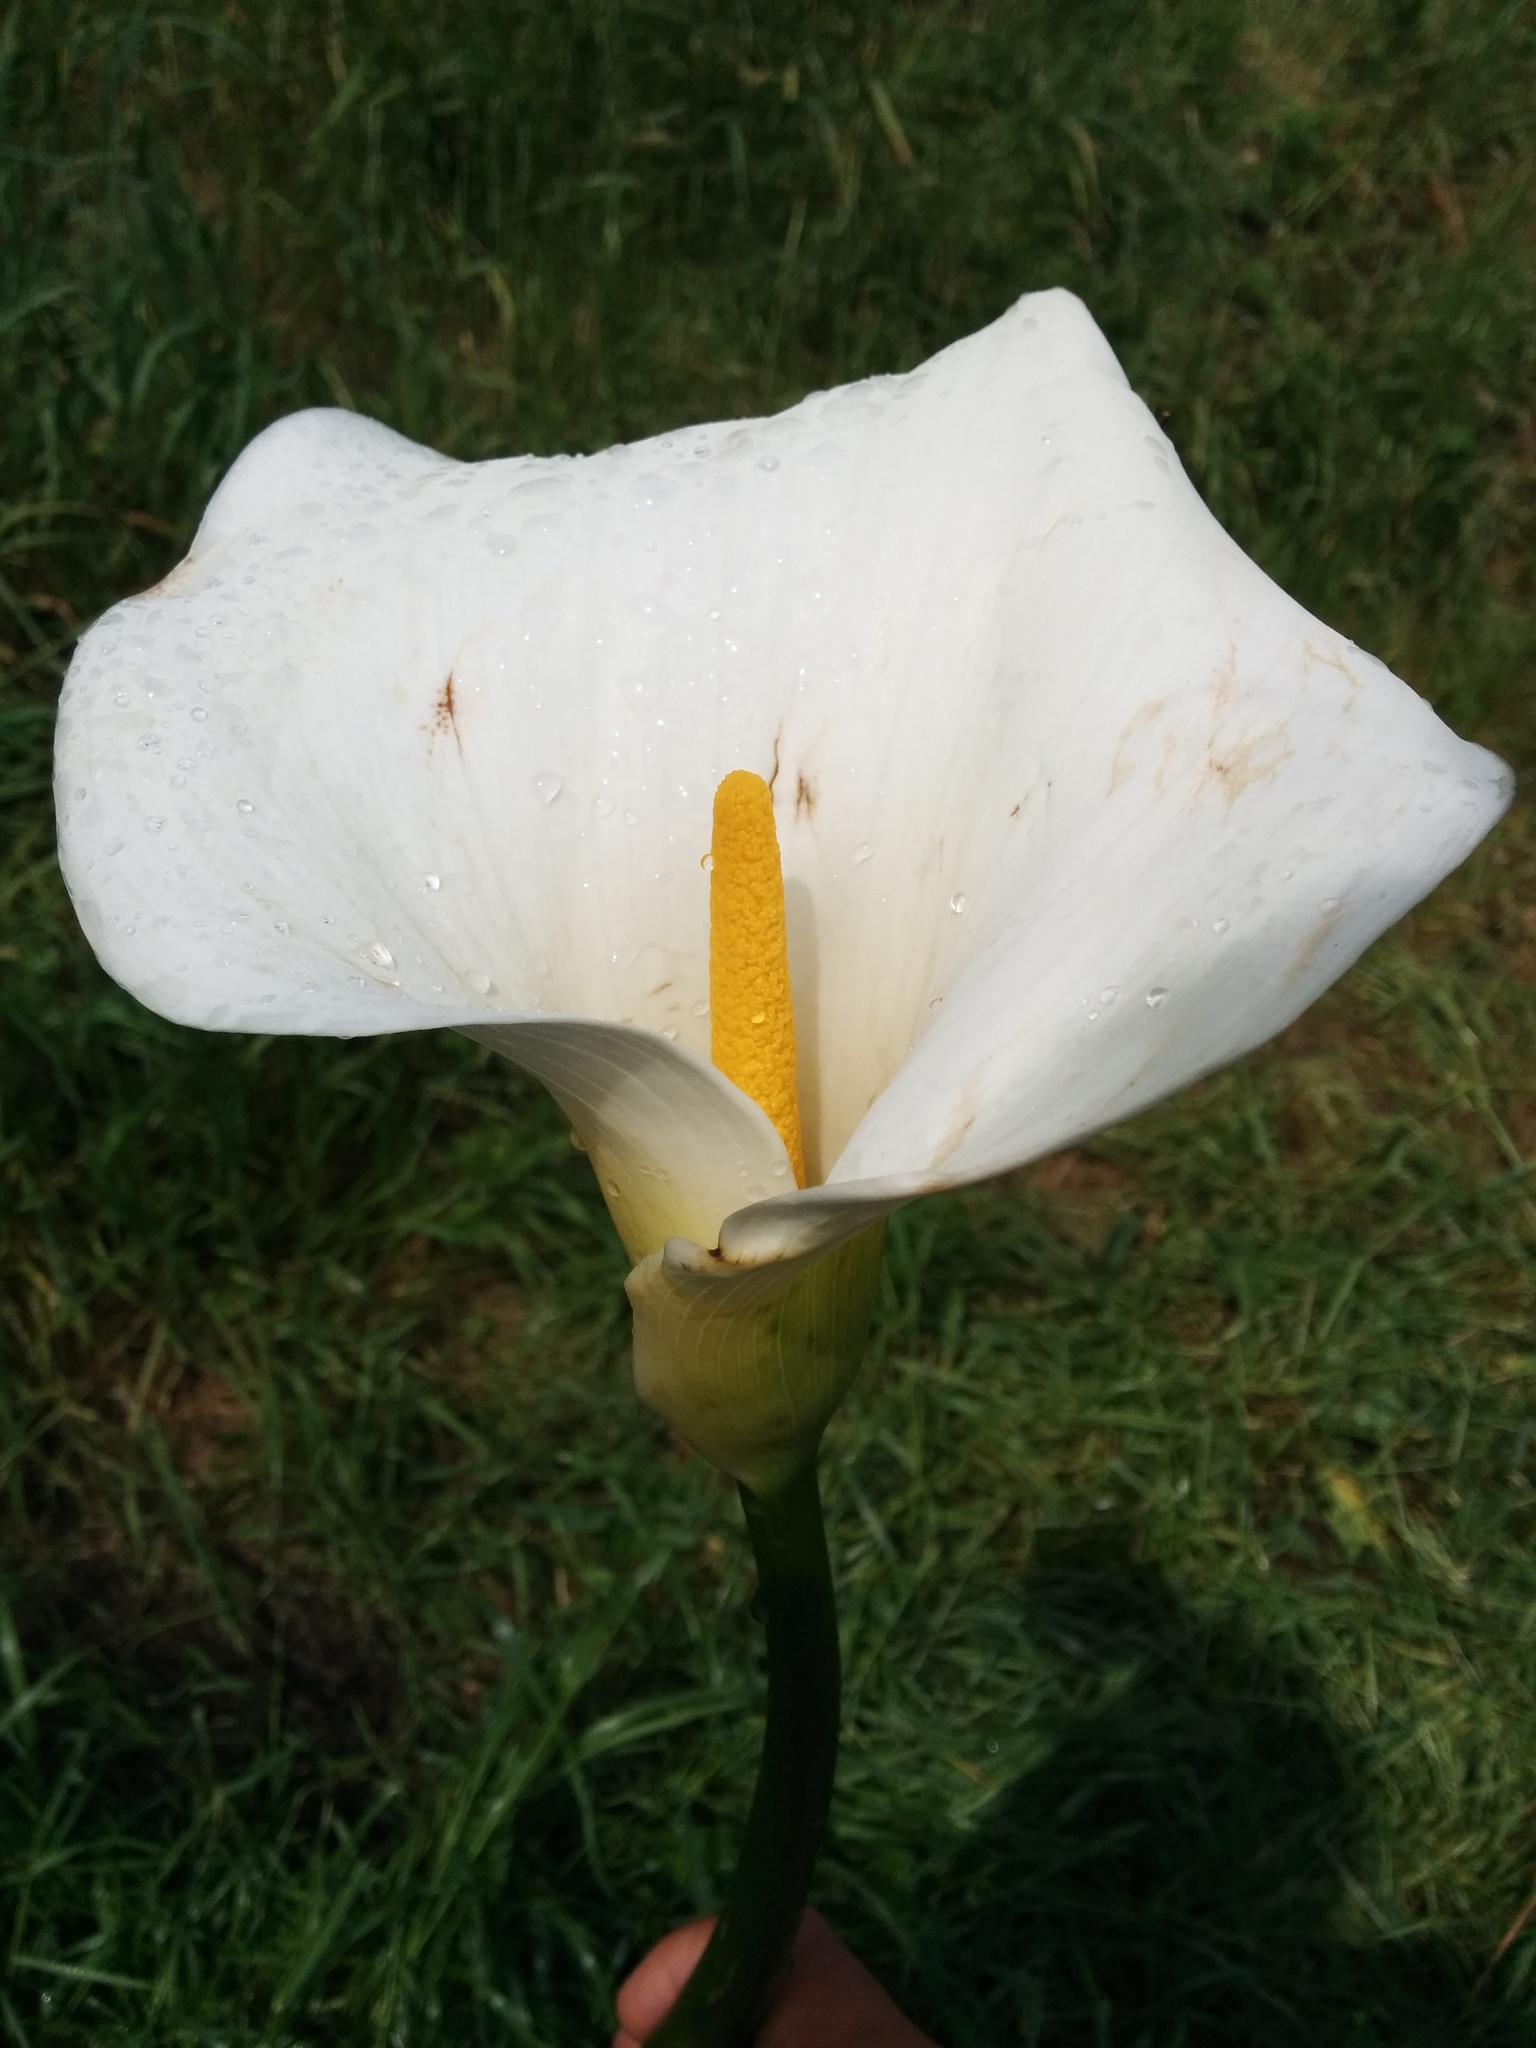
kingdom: Plantae
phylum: Tracheophyta
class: Liliopsida
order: Alismatales
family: Araceae
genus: Zantedeschia
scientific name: Zantedeschia aethiopica
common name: Altar-lily
